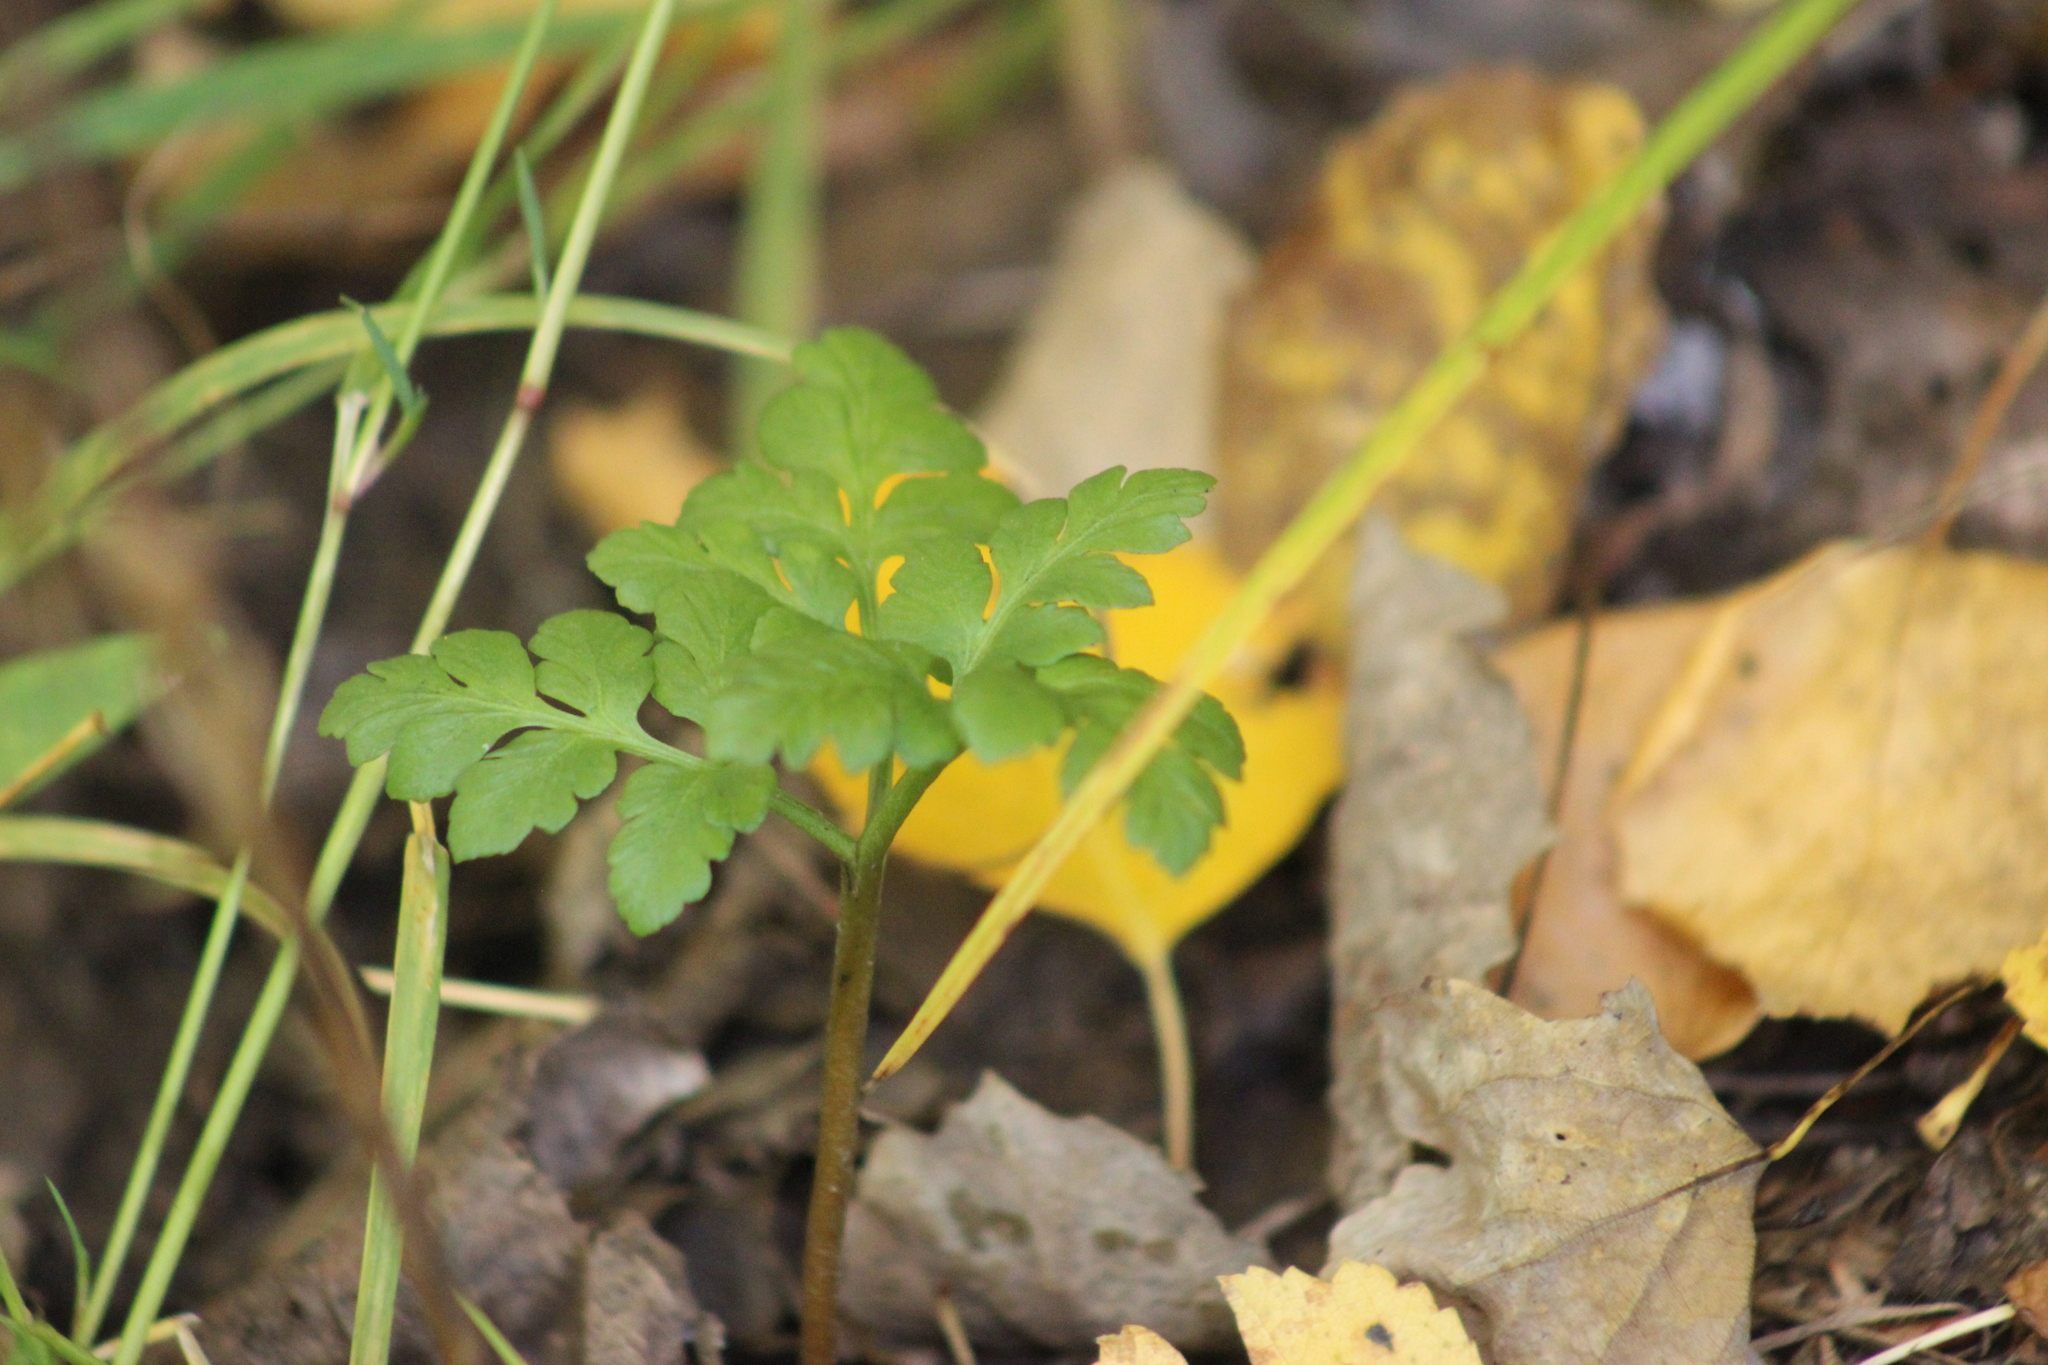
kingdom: Plantae
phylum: Tracheophyta
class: Polypodiopsida
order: Ophioglossales
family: Ophioglossaceae
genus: Sceptridium
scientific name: Sceptridium multifidum
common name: Leathery grape fern
